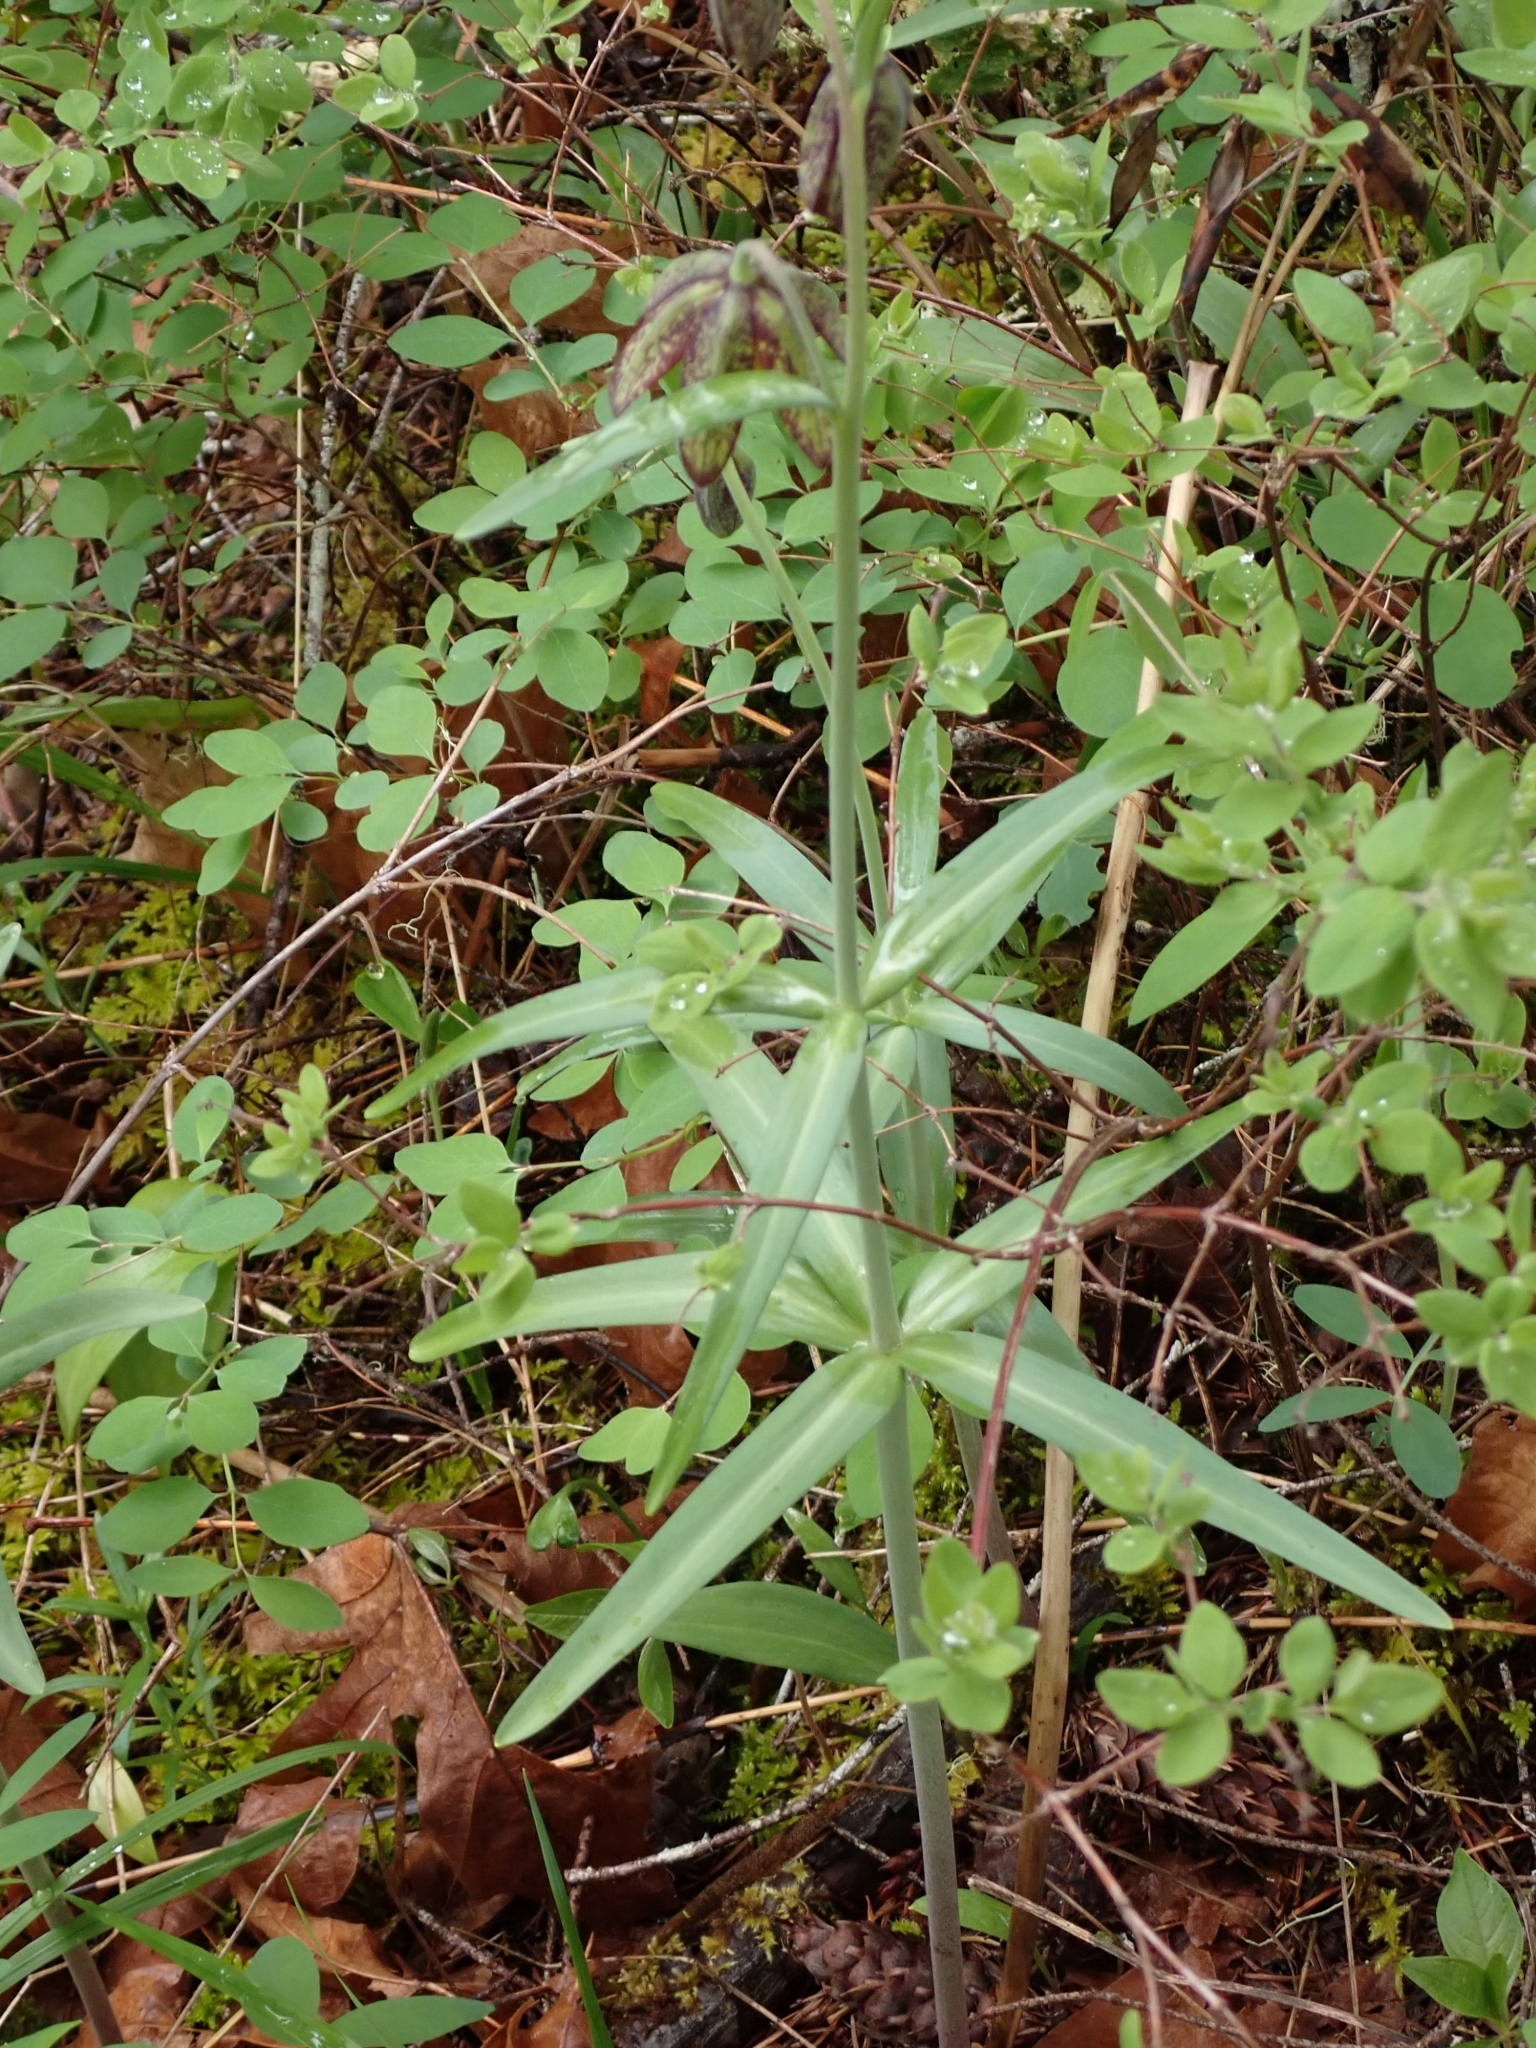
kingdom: Plantae
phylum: Tracheophyta
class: Liliopsida
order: Liliales
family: Liliaceae
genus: Fritillaria
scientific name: Fritillaria affinis
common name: Ojai fritillary
